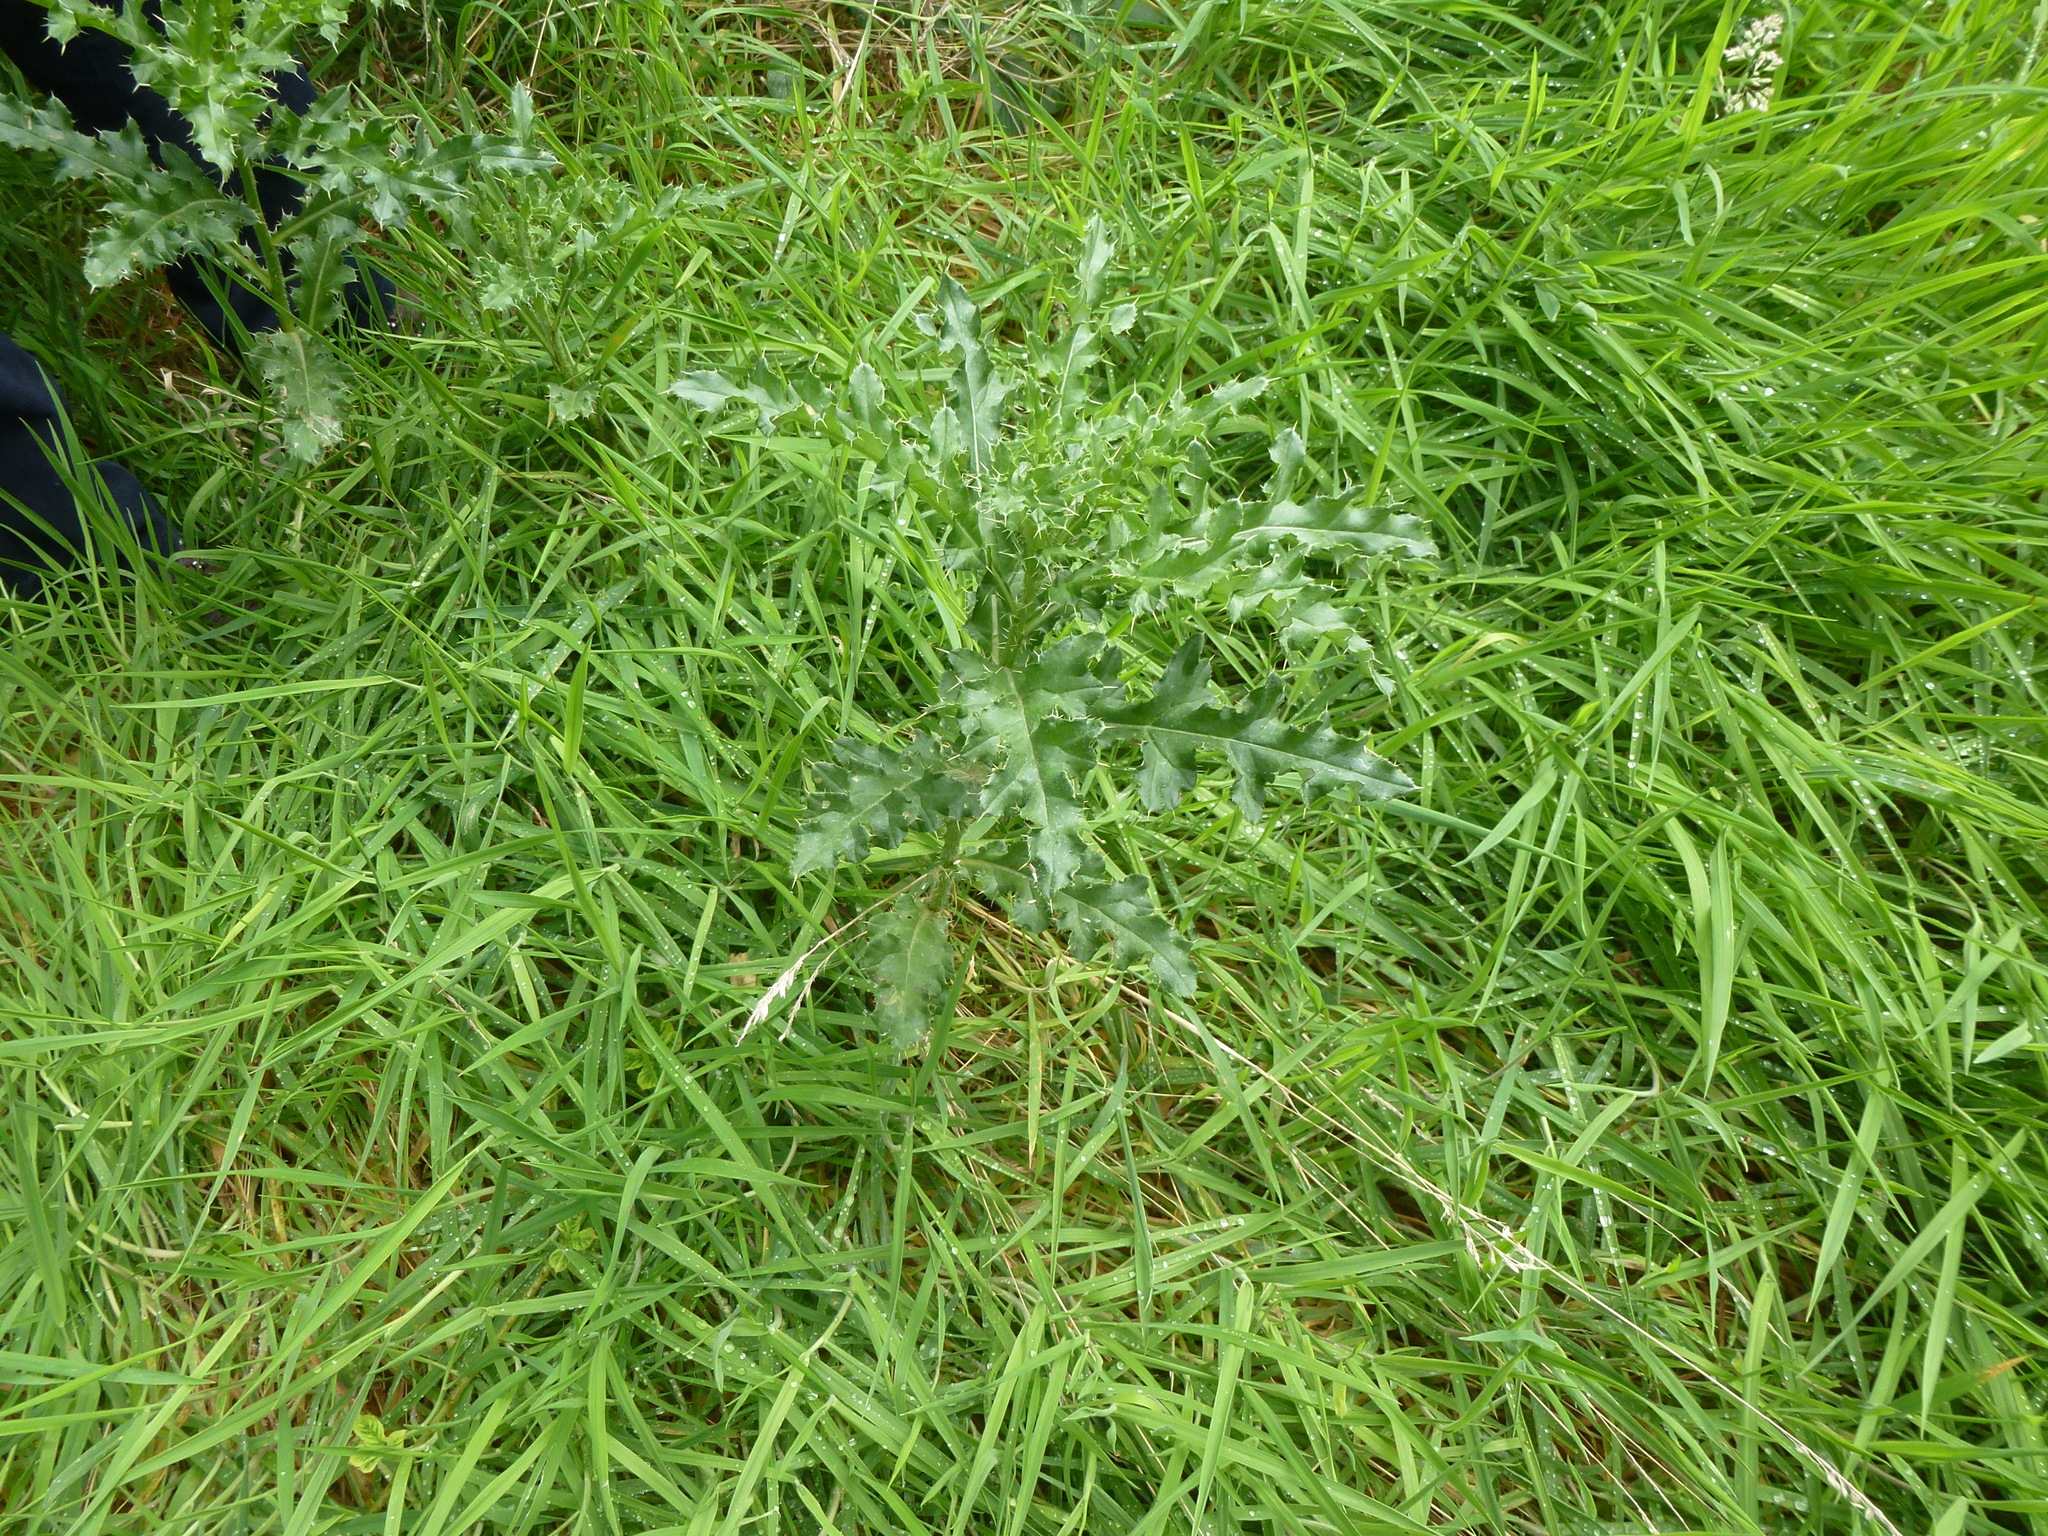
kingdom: Plantae
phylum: Tracheophyta
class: Magnoliopsida
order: Asterales
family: Asteraceae
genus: Cirsium
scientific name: Cirsium arvense
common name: Creeping thistle
